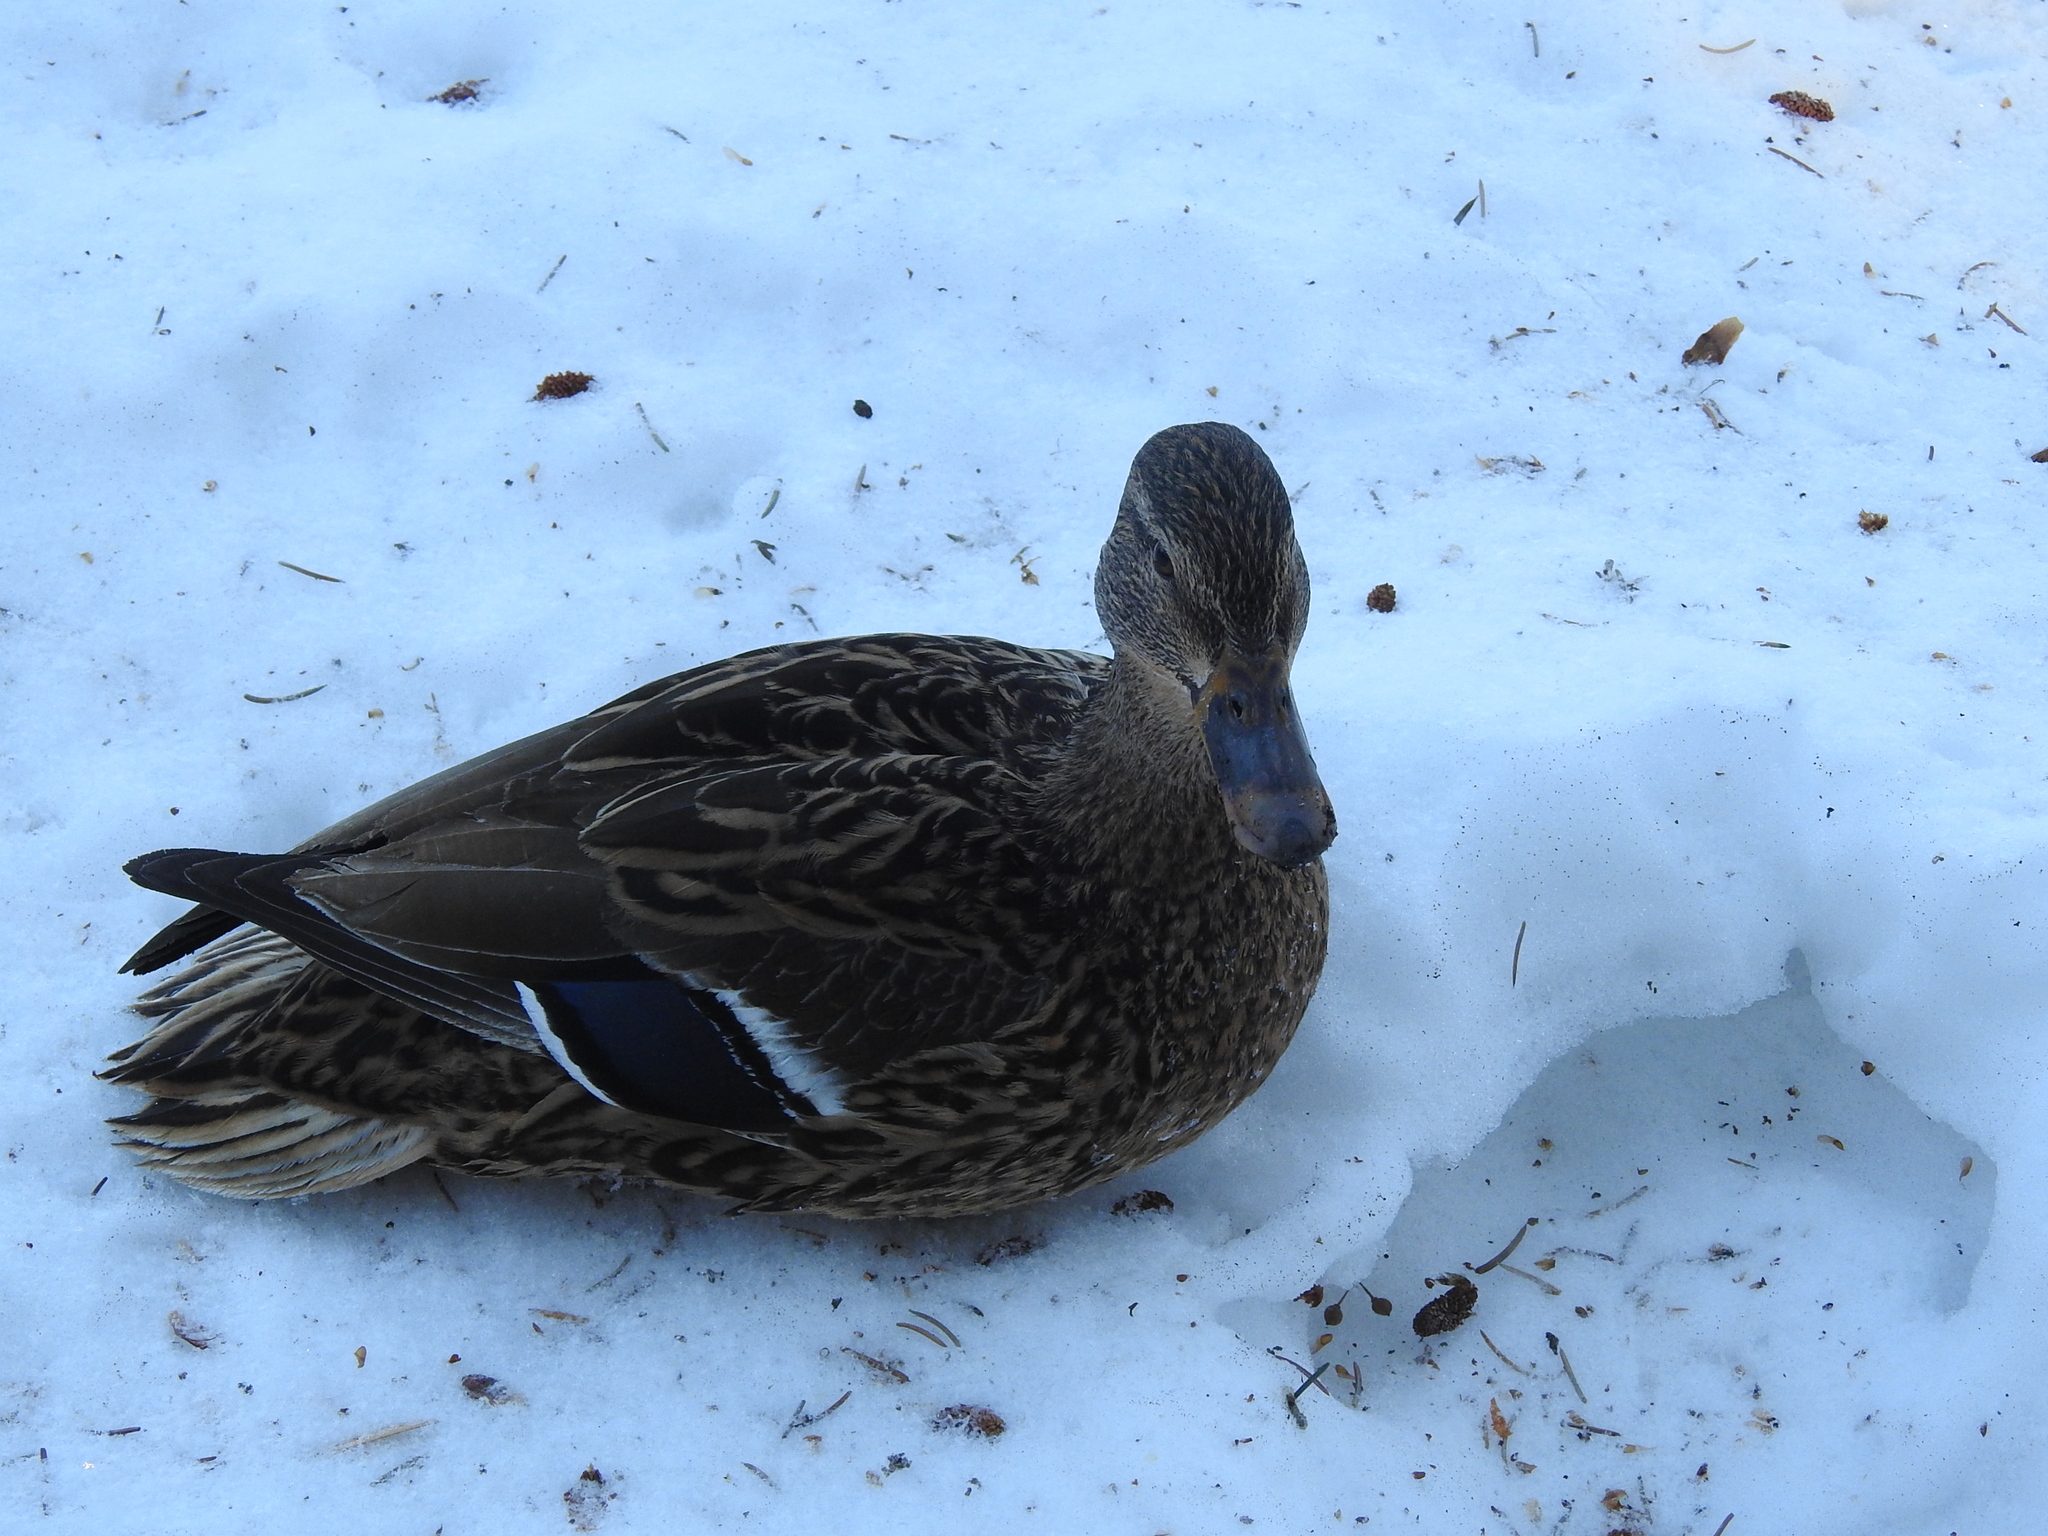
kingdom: Animalia
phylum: Chordata
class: Aves
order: Anseriformes
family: Anatidae
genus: Anas
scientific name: Anas platyrhynchos
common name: Mallard
